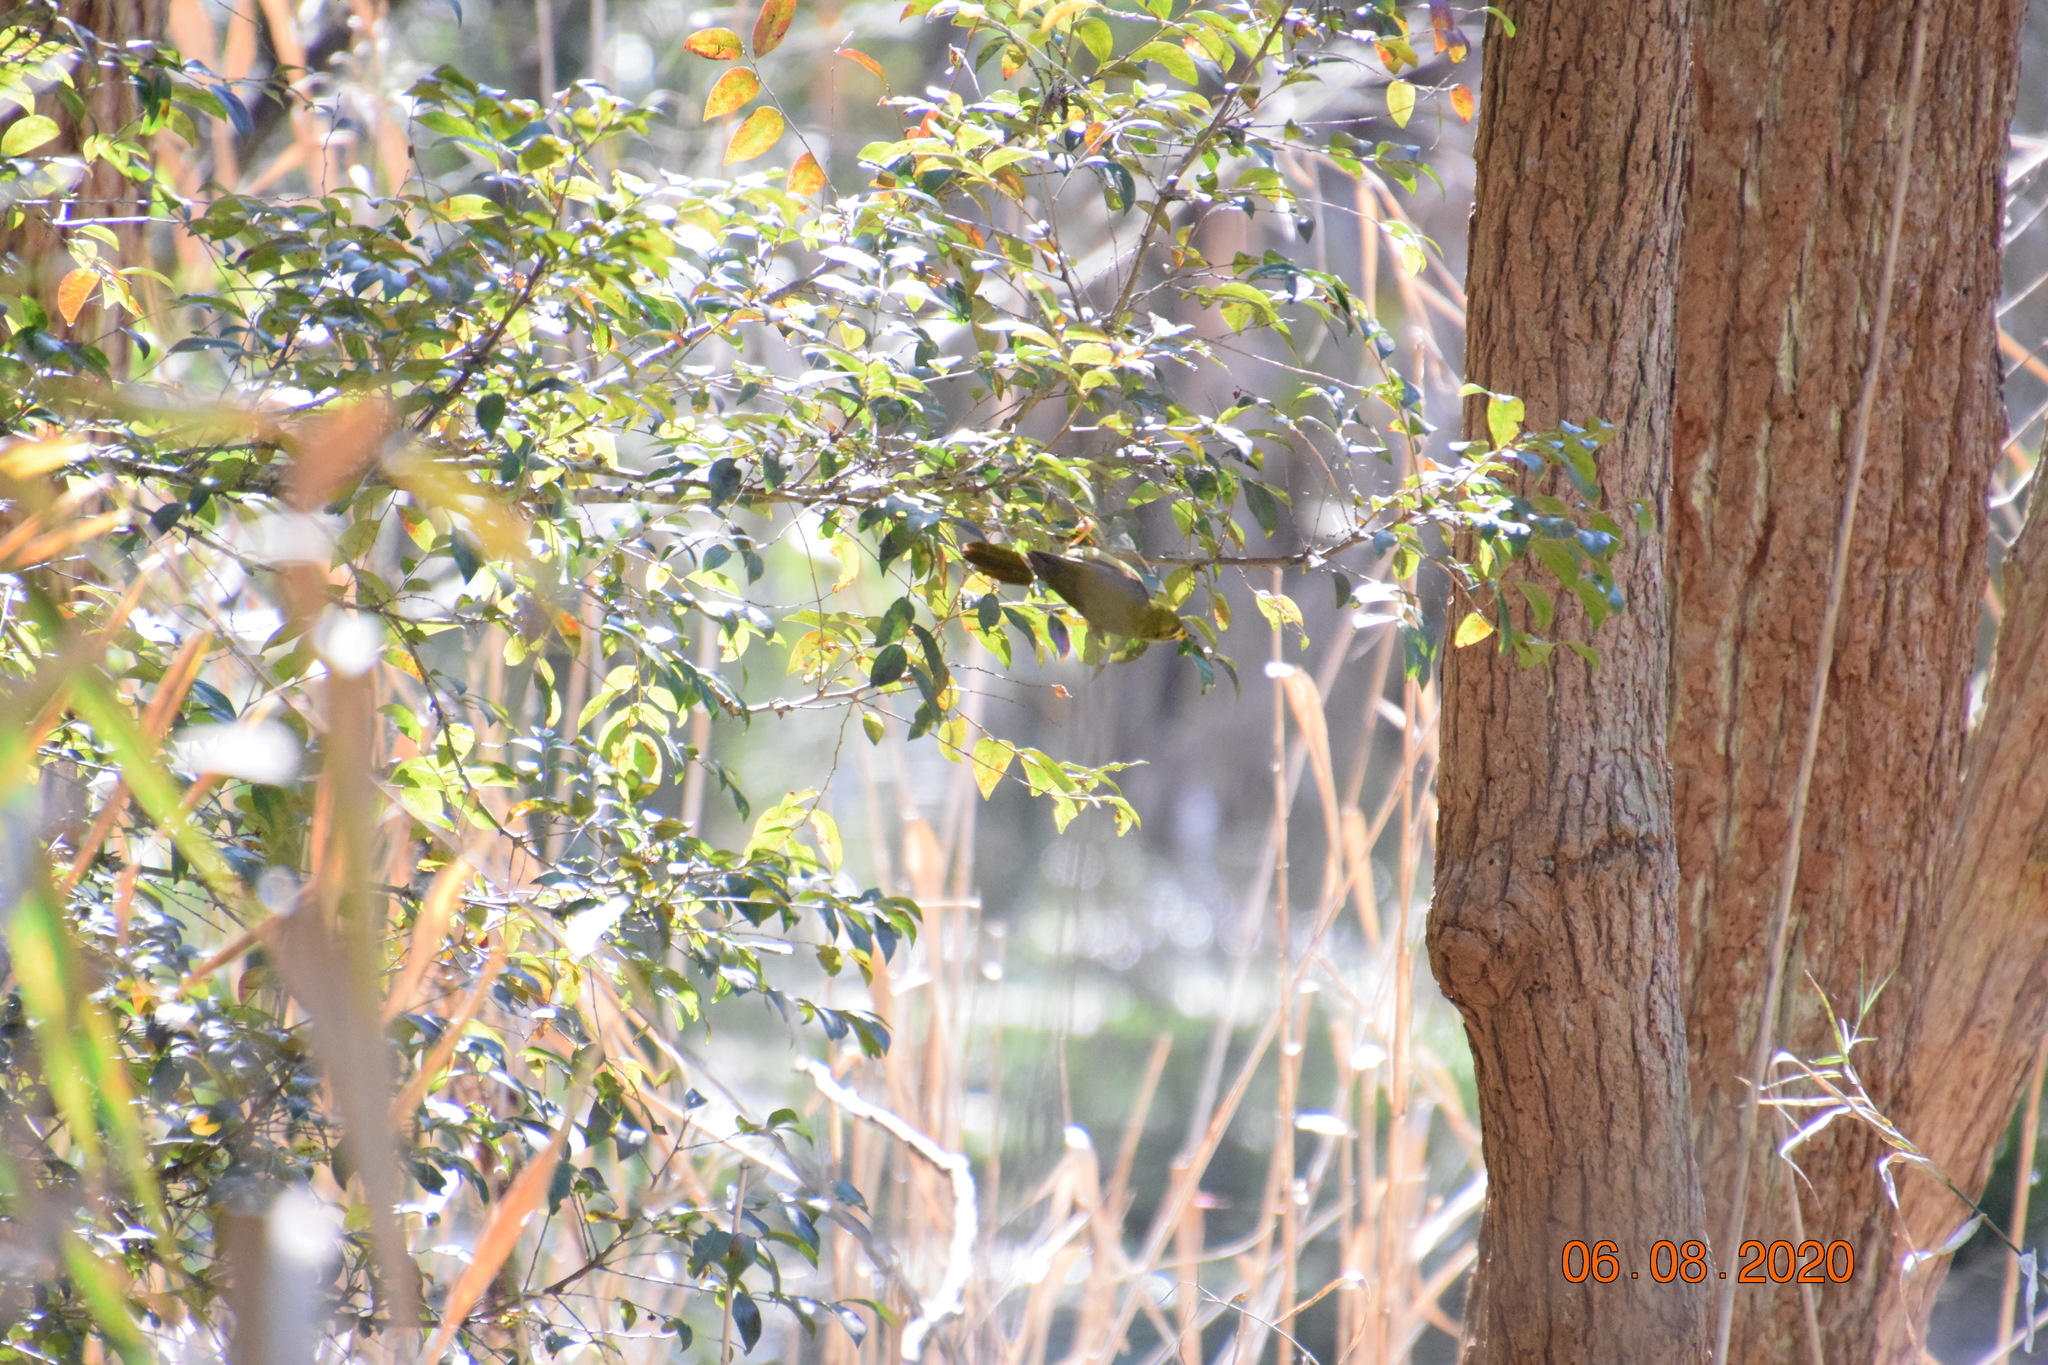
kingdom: Animalia
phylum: Chordata
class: Aves
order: Passeriformes
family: Meliphagidae
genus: Manorina
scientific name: Manorina melanophrys
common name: Bell miner
